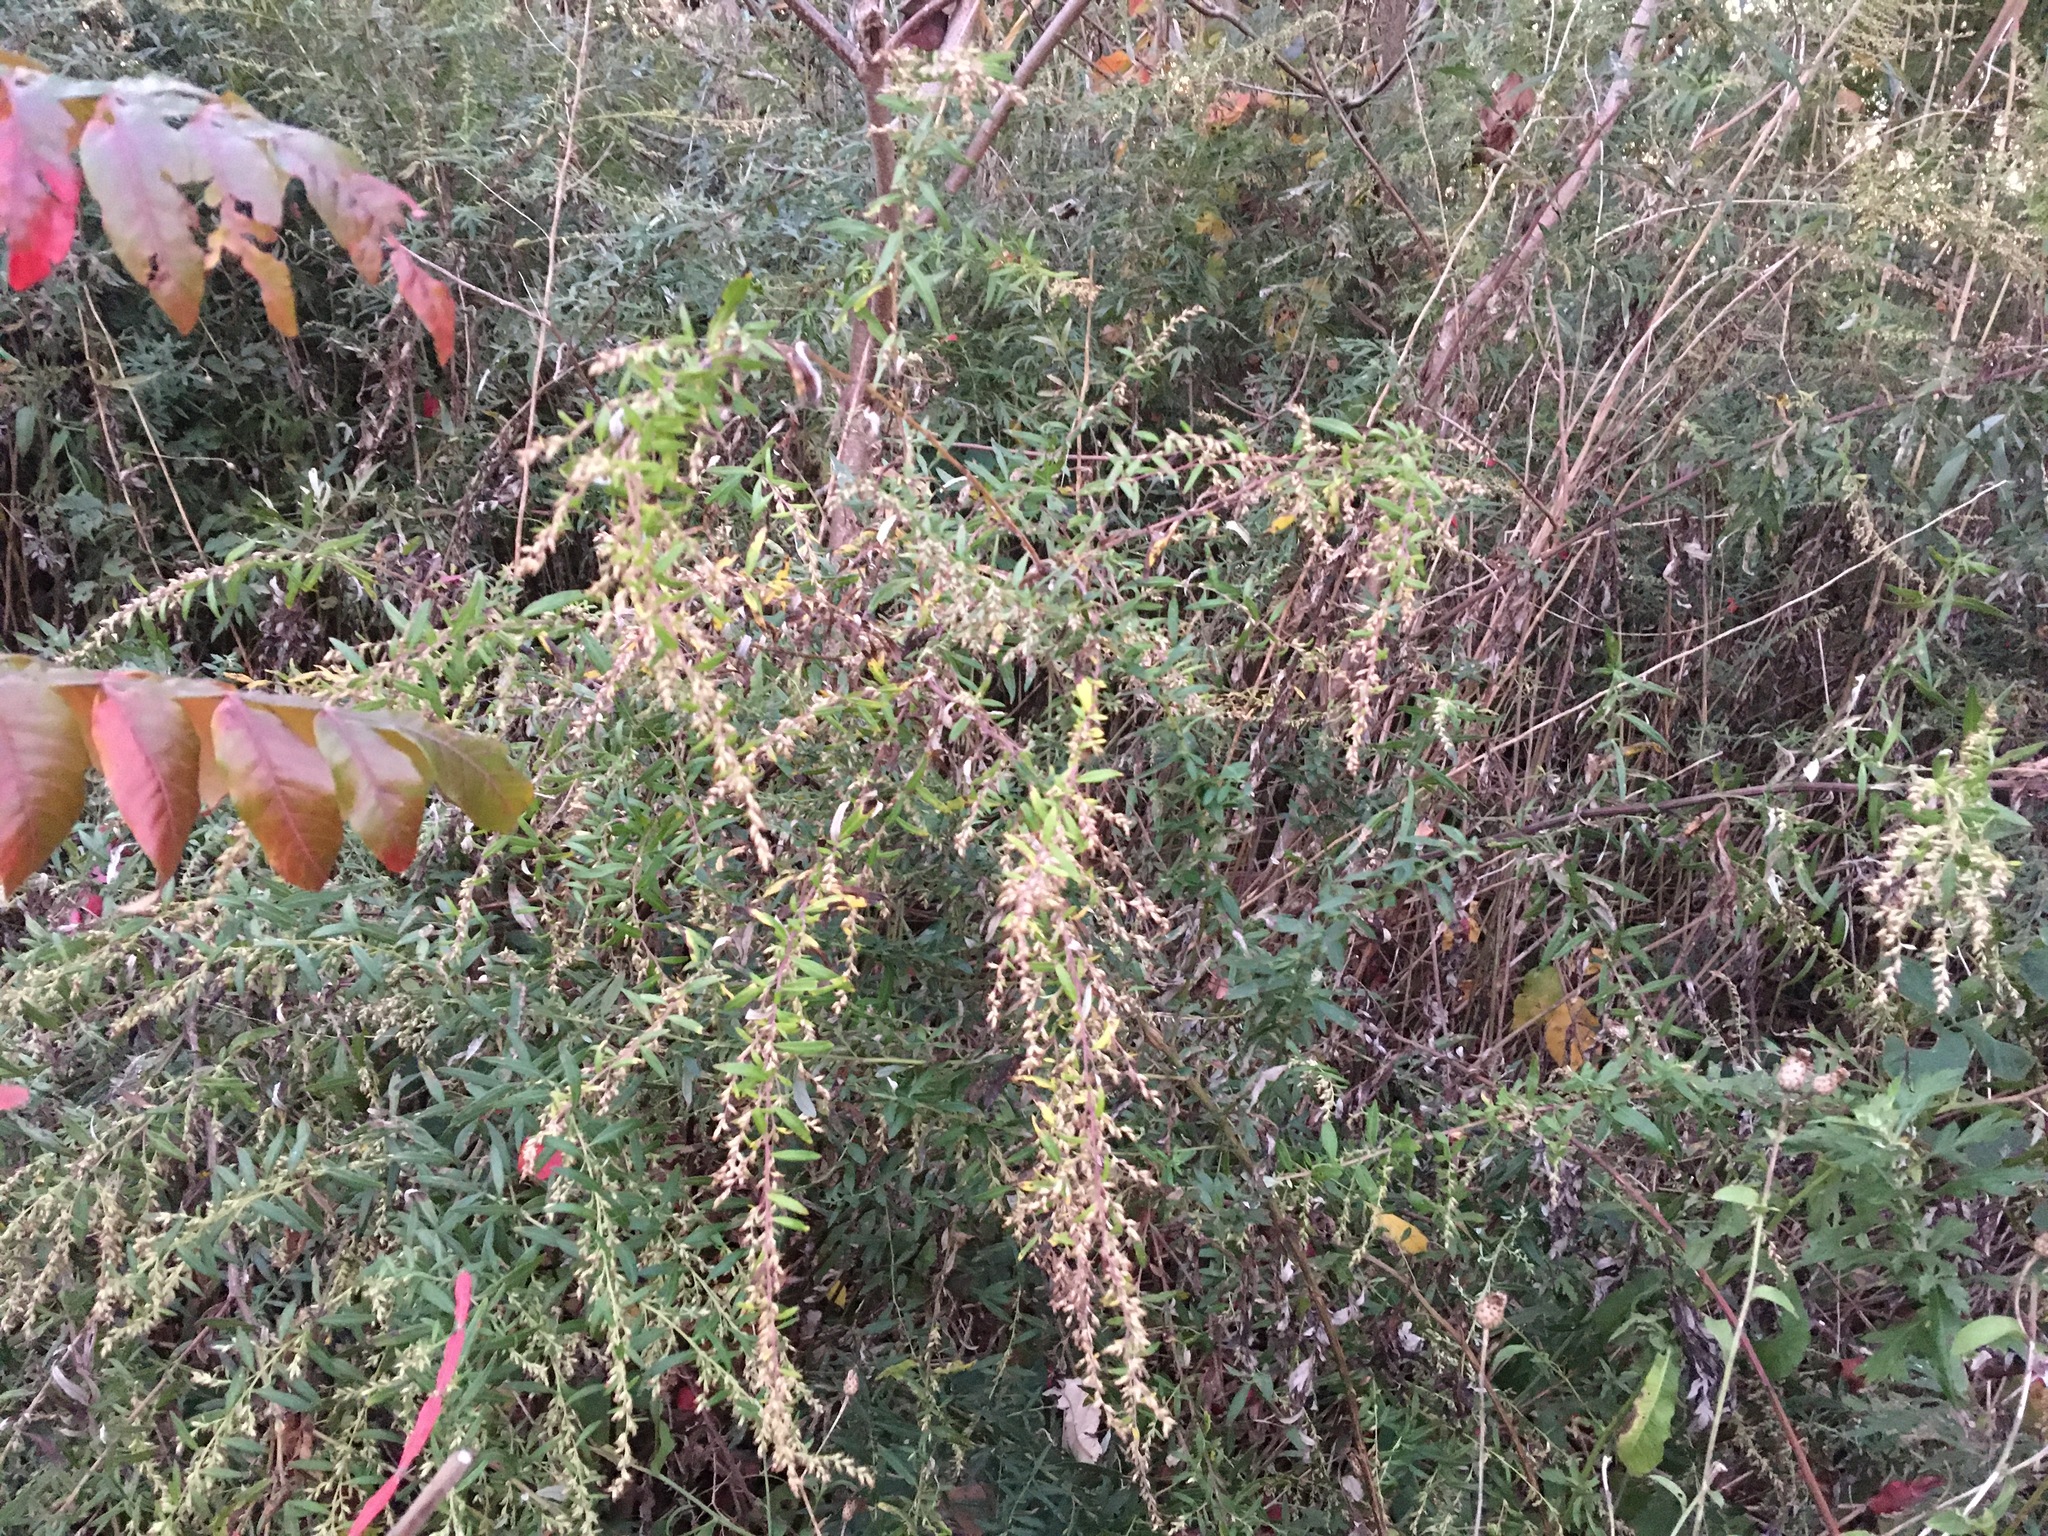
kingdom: Plantae
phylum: Tracheophyta
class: Magnoliopsida
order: Asterales
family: Asteraceae
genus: Artemisia
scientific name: Artemisia vulgaris
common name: Mugwort
